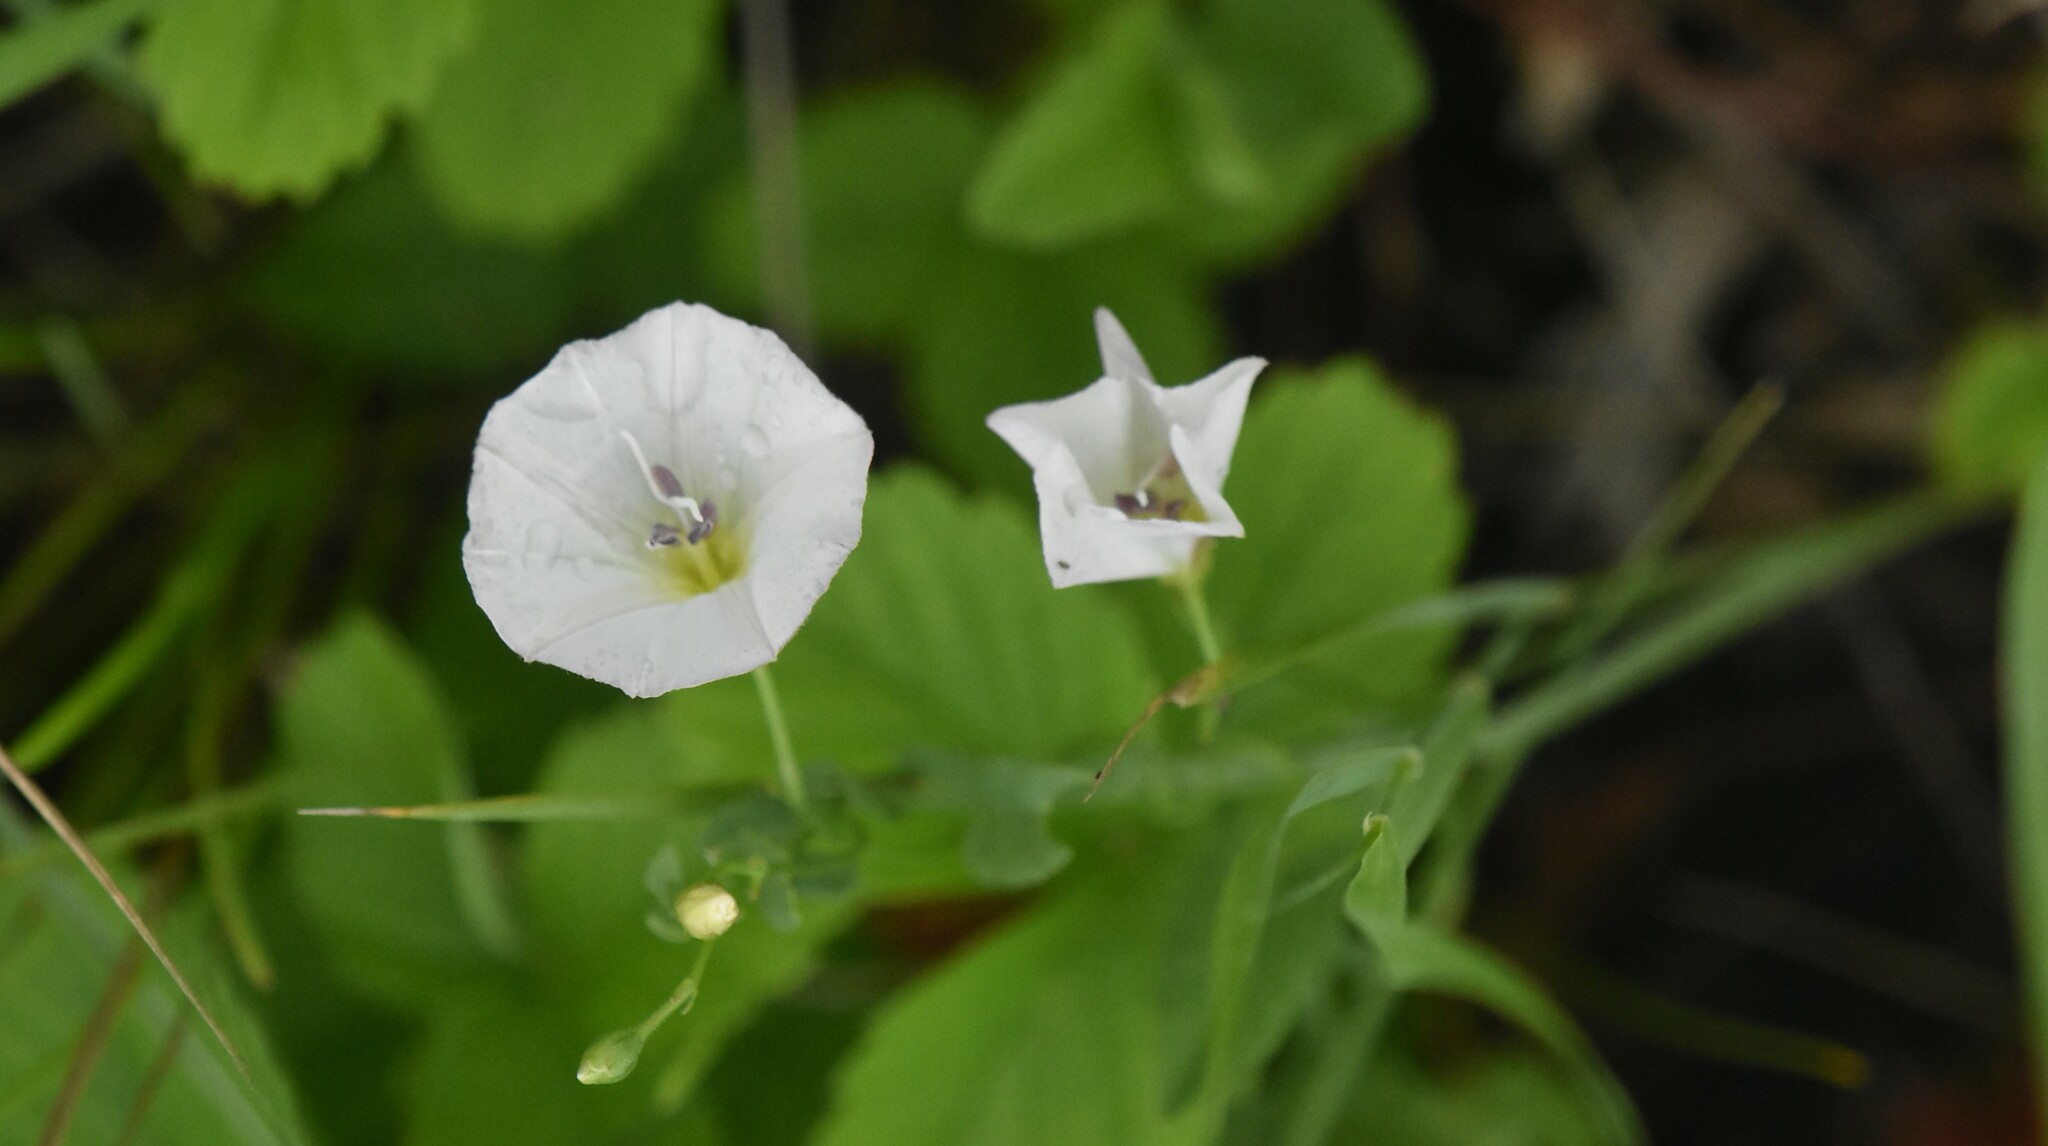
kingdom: Plantae
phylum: Tracheophyta
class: Magnoliopsida
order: Solanales
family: Convolvulaceae
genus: Convolvulus
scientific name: Convolvulus arvensis
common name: Field bindweed
